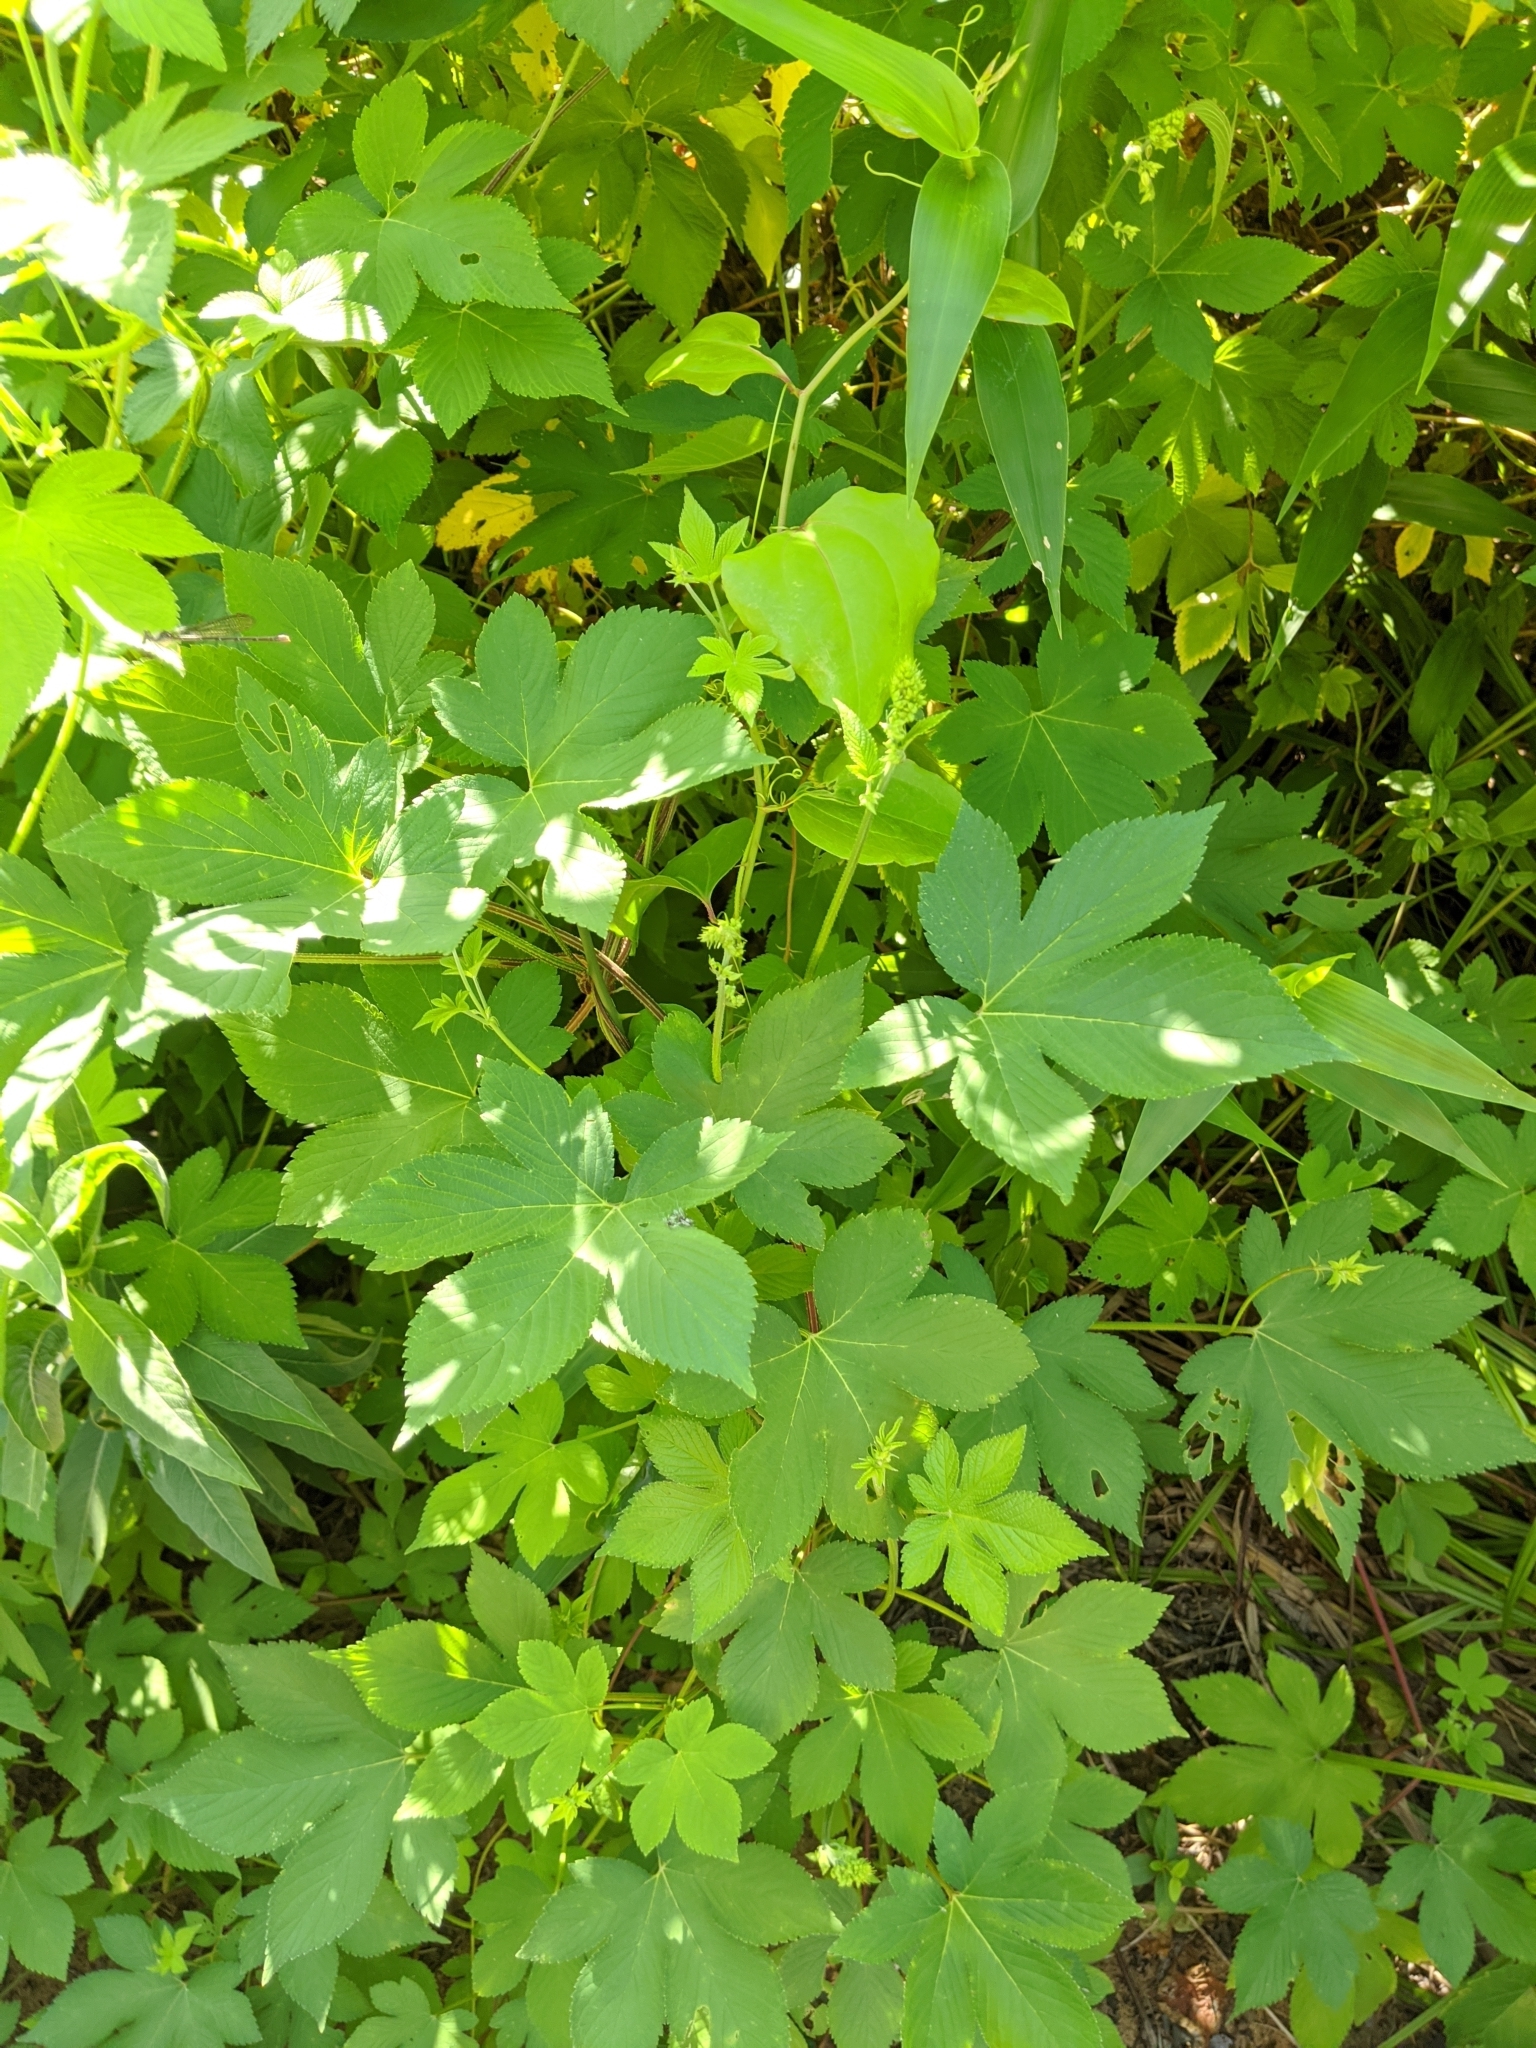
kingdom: Plantae
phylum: Tracheophyta
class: Magnoliopsida
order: Rosales
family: Cannabaceae
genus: Humulus
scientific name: Humulus scandens
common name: Japanese hop
